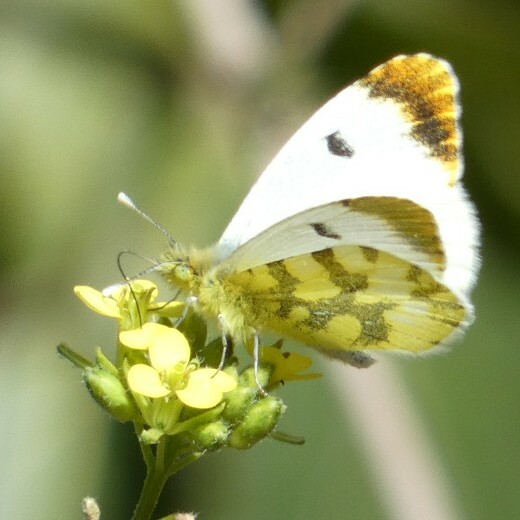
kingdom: Animalia
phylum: Arthropoda
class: Insecta
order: Lepidoptera
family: Pieridae
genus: Anthocharis
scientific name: Anthocharis euphenoides
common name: Provence orange-tip
